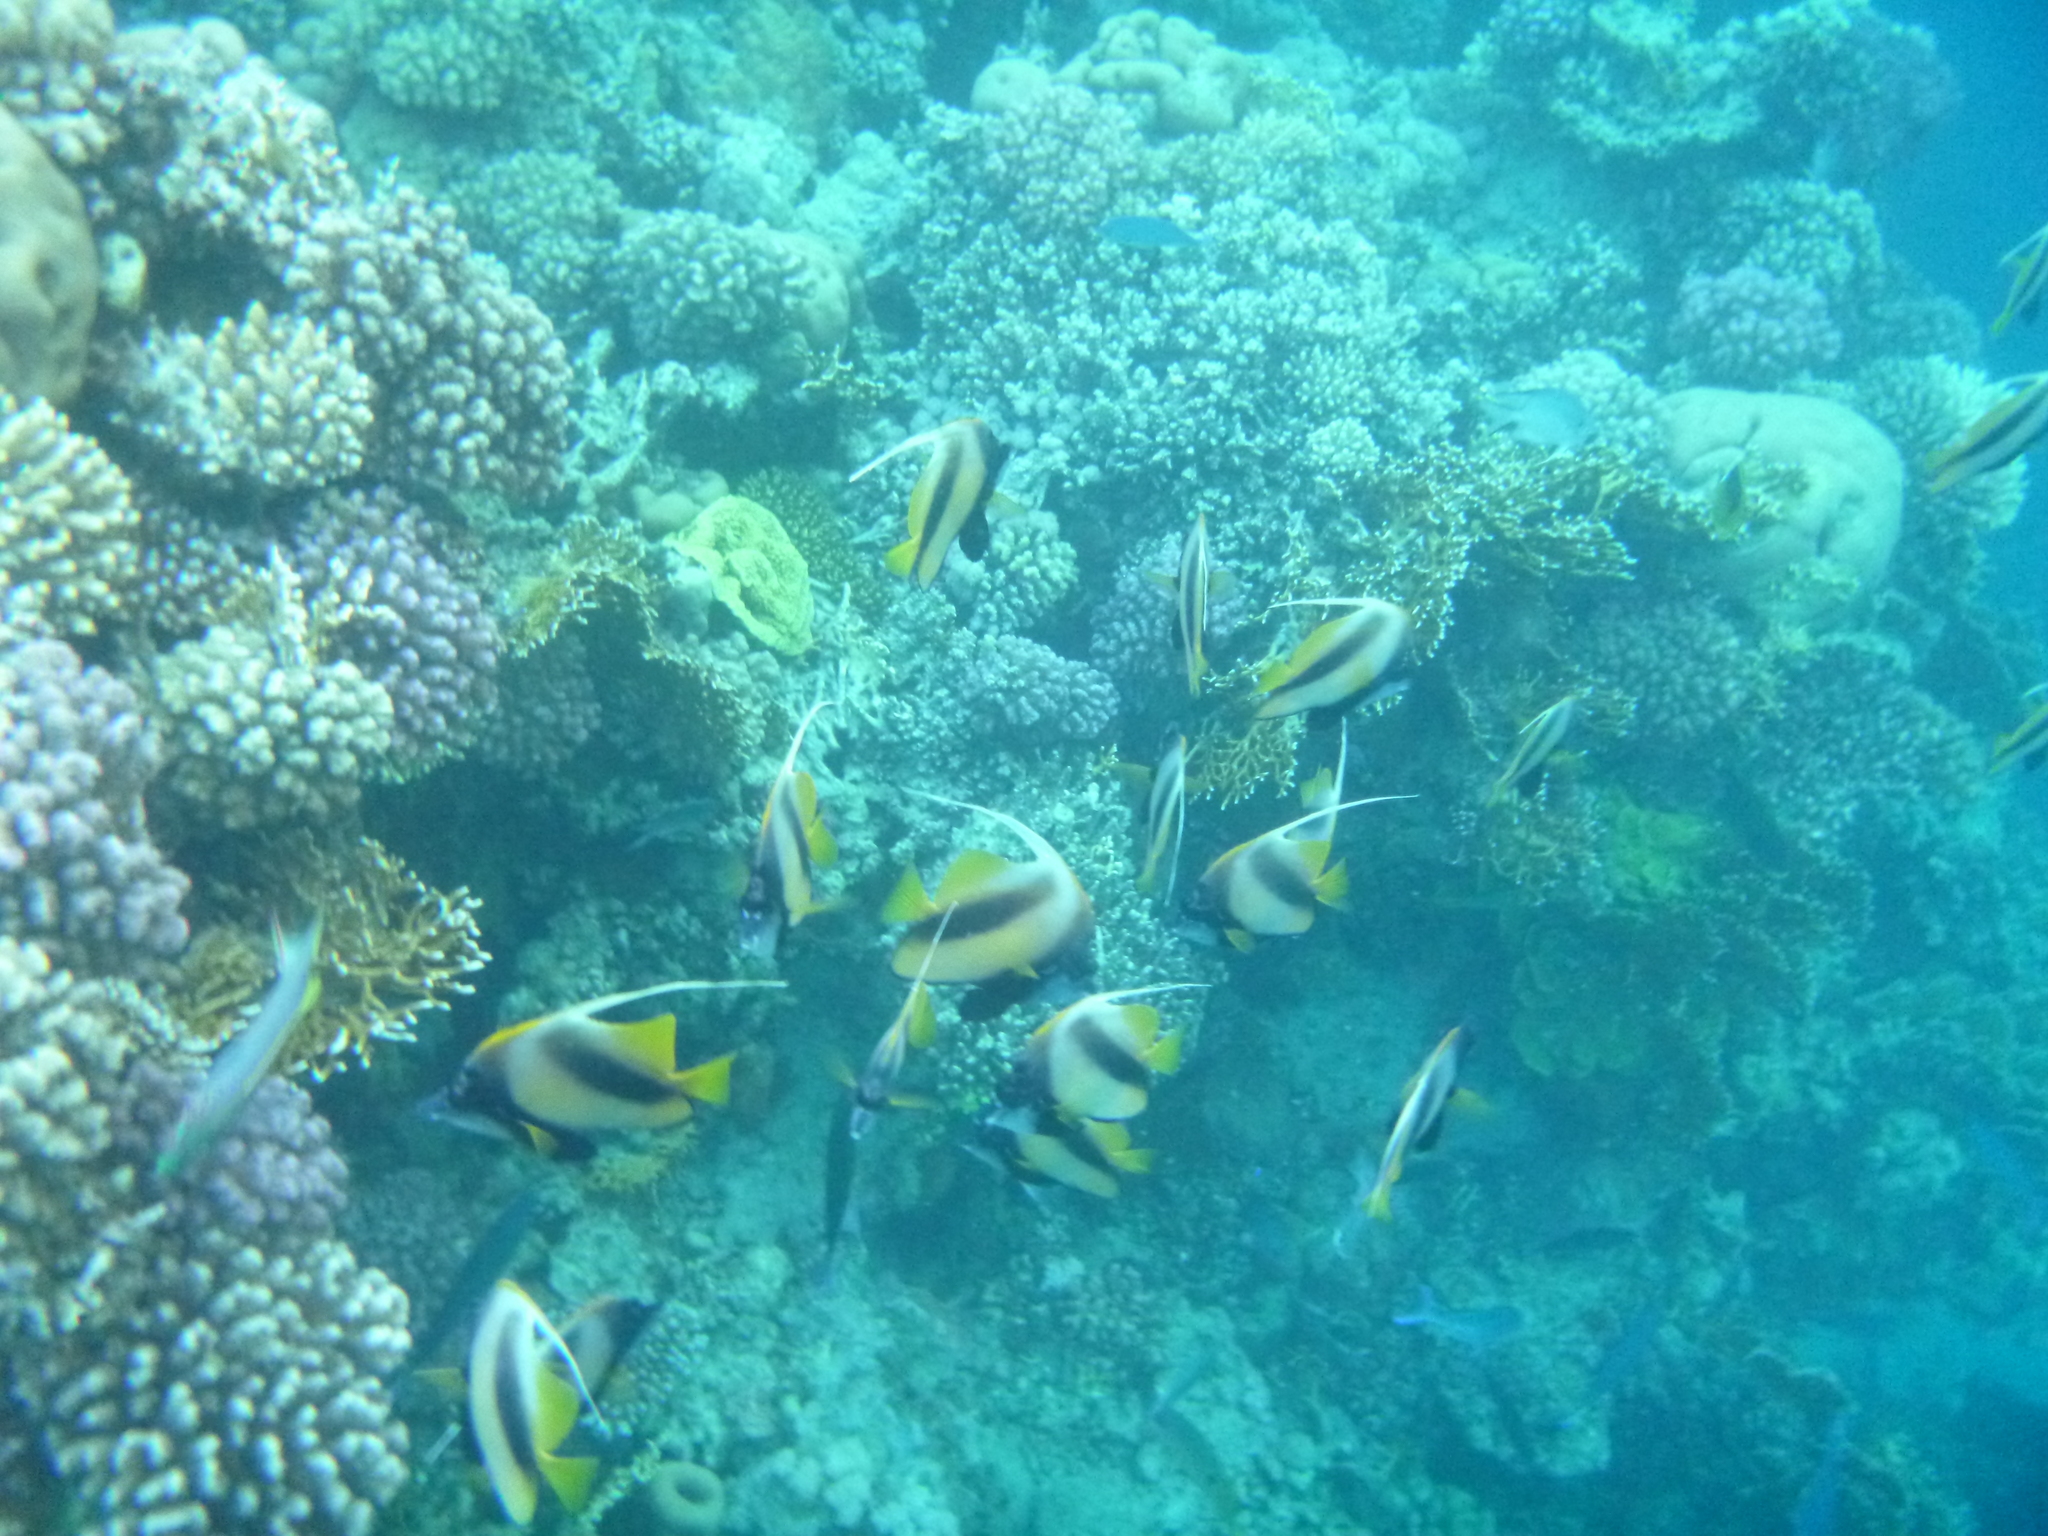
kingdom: Animalia
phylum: Chordata
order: Perciformes
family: Chaetodontidae
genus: Heniochus
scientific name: Heniochus intermedius
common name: Red sea bannerfish
